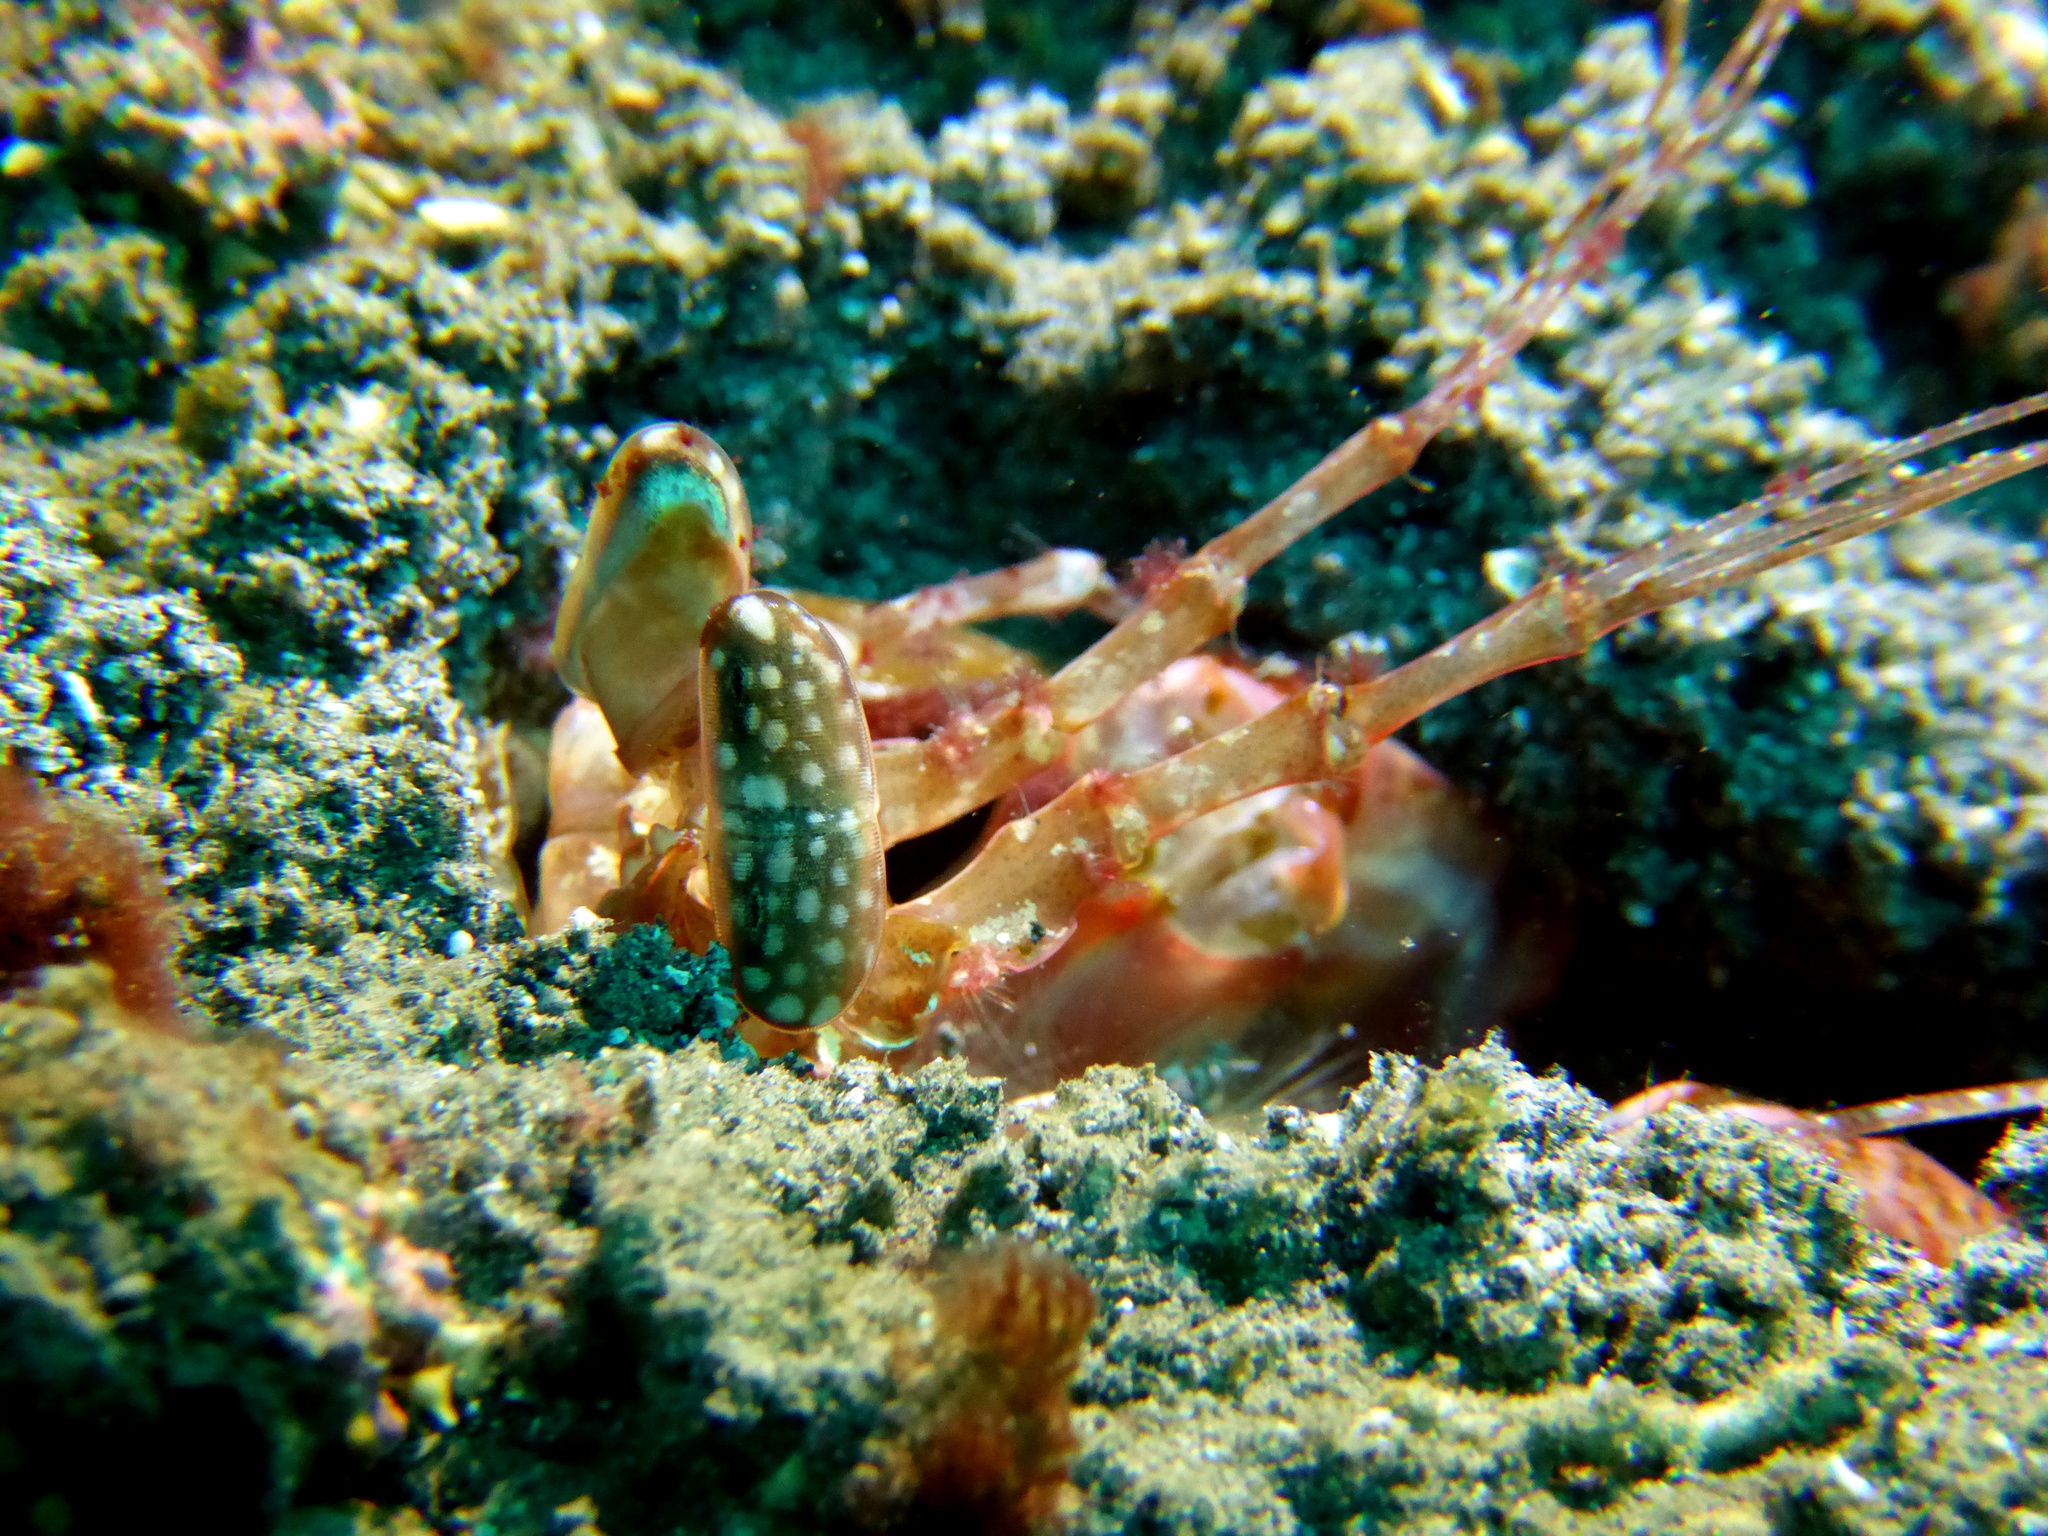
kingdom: Animalia
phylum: Arthropoda
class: Malacostraca
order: Stomatopoda
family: Lysiosquillidae
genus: Lysiosquilla
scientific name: Lysiosquilla lisa
